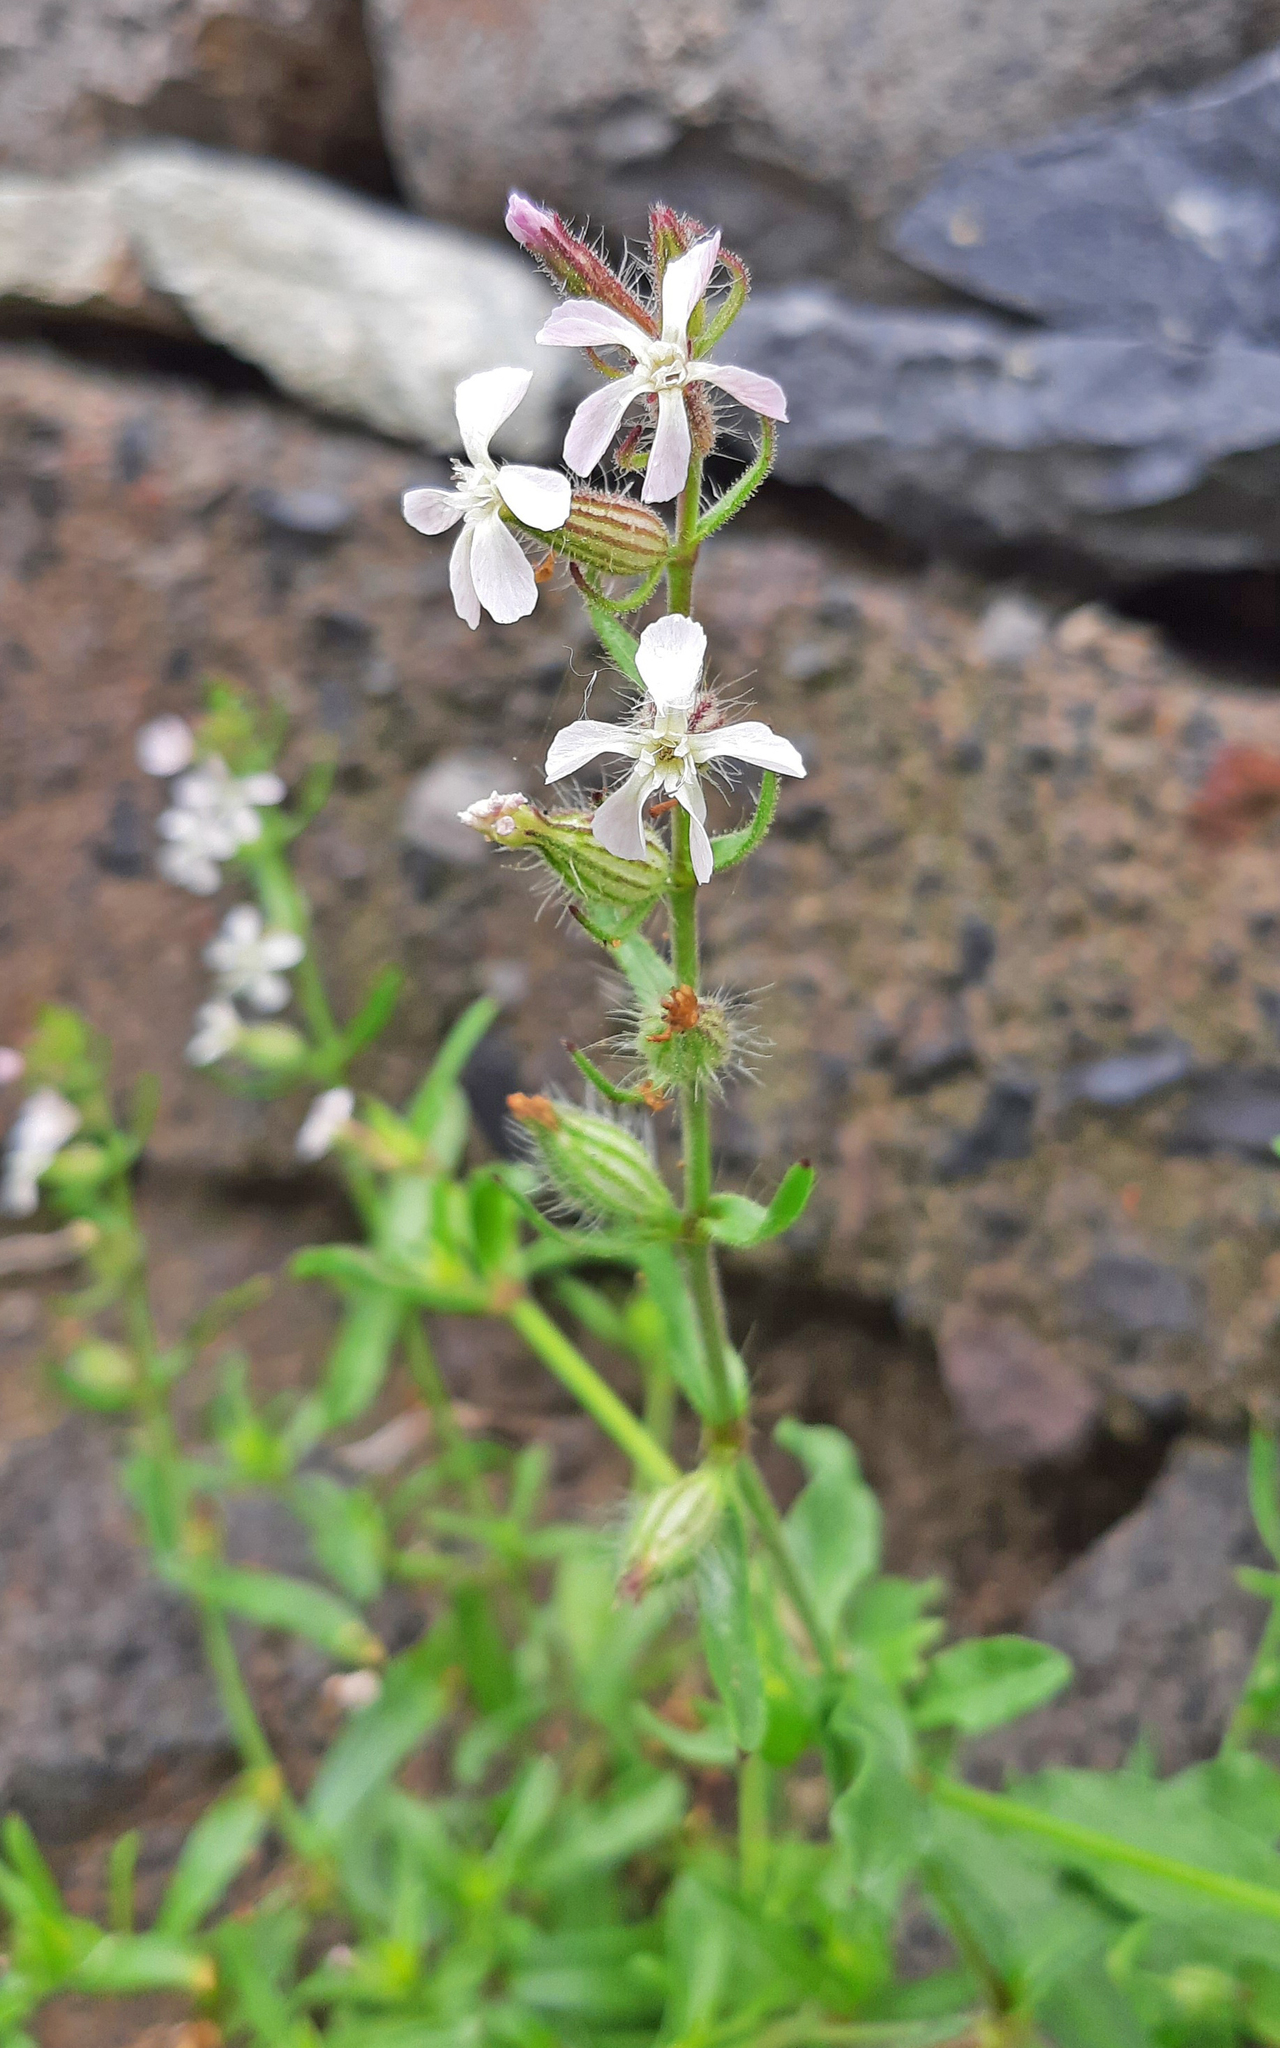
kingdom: Plantae
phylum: Tracheophyta
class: Magnoliopsida
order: Caryophyllales
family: Caryophyllaceae
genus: Silene
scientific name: Silene gallica
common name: Small-flowered catchfly
